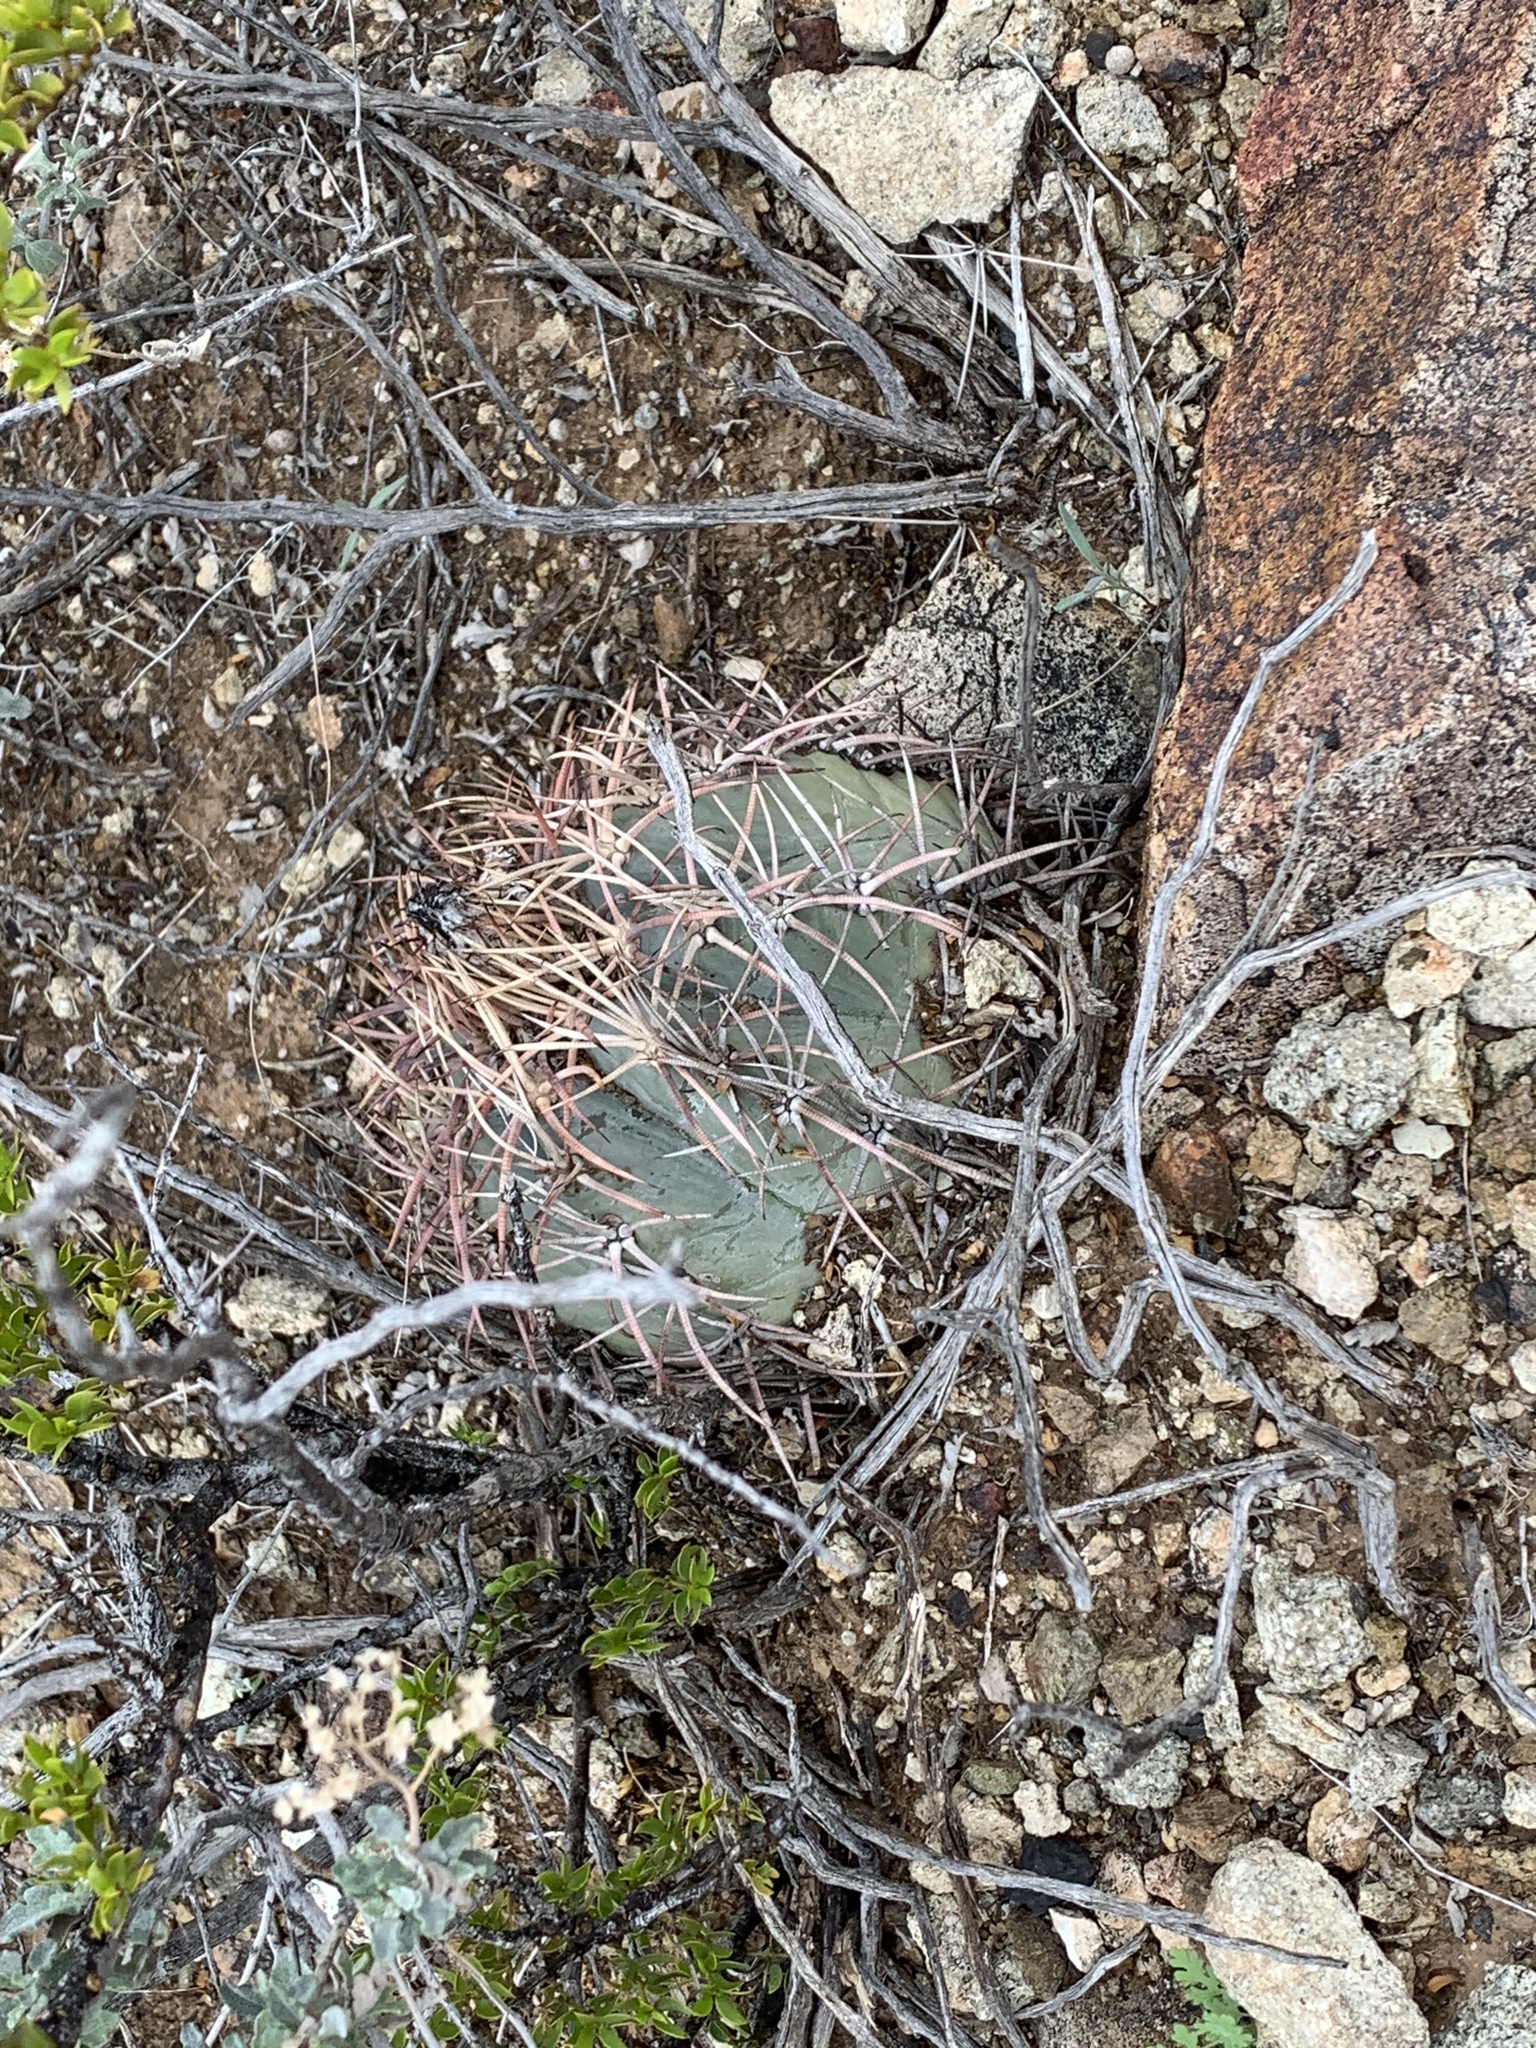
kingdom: Plantae
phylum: Tracheophyta
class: Magnoliopsida
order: Caryophyllales
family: Cactaceae
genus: Echinocactus
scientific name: Echinocactus horizonthalonius
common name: Devilshead
